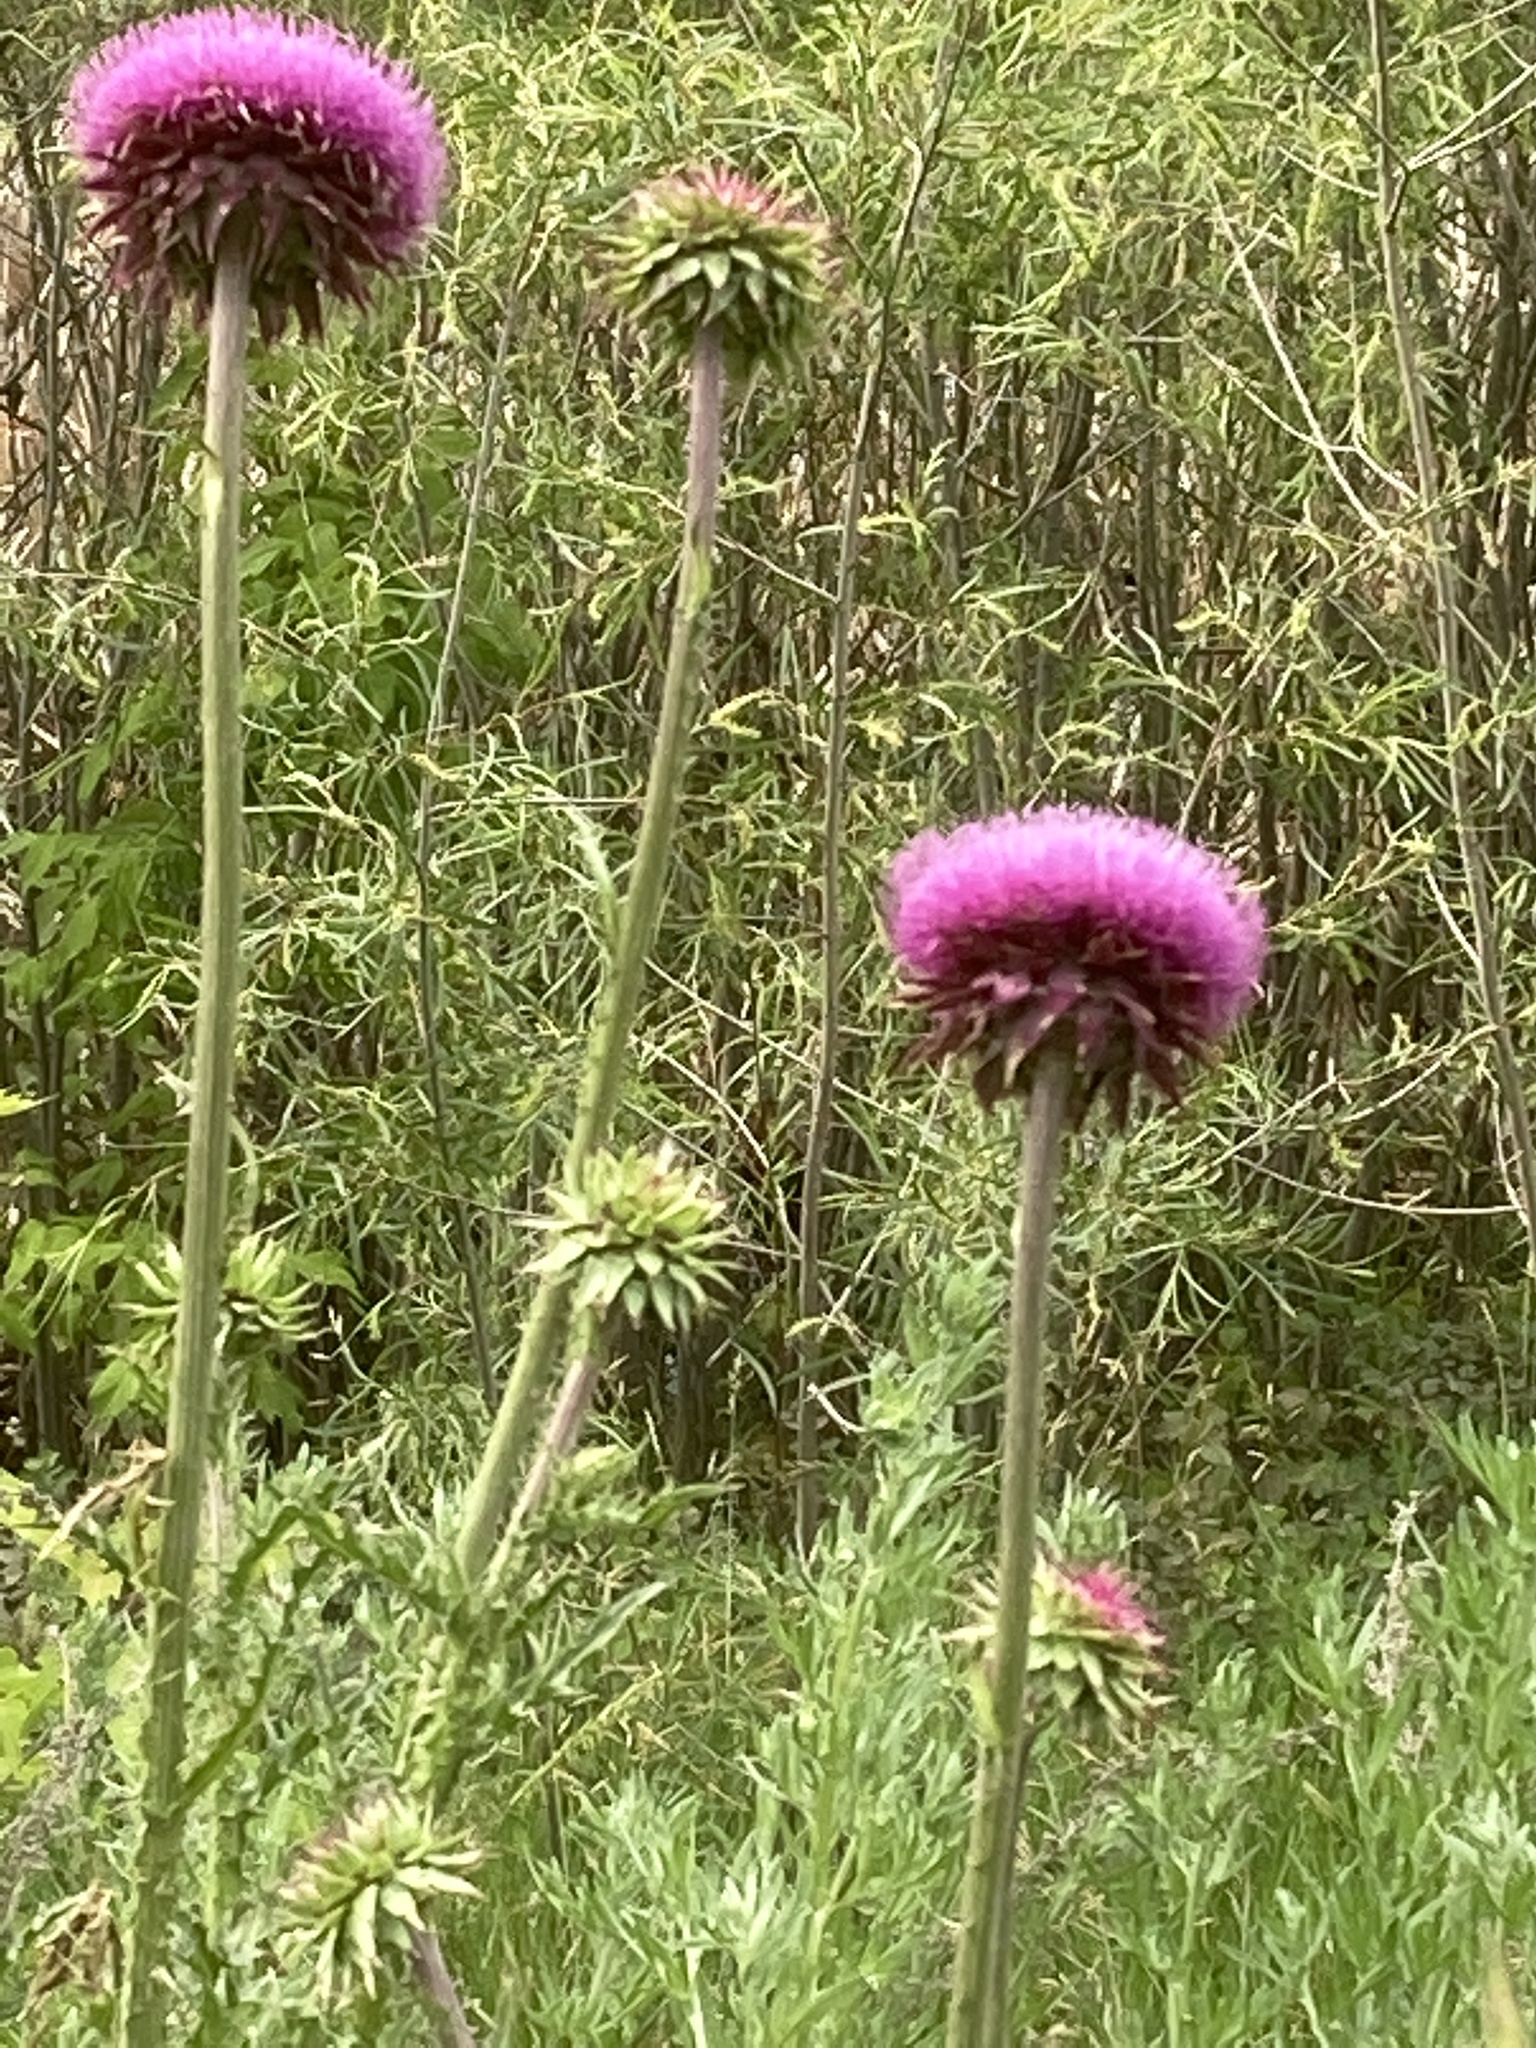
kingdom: Plantae
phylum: Tracheophyta
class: Magnoliopsida
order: Asterales
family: Asteraceae
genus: Carduus
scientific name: Carduus nutans
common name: Musk thistle
